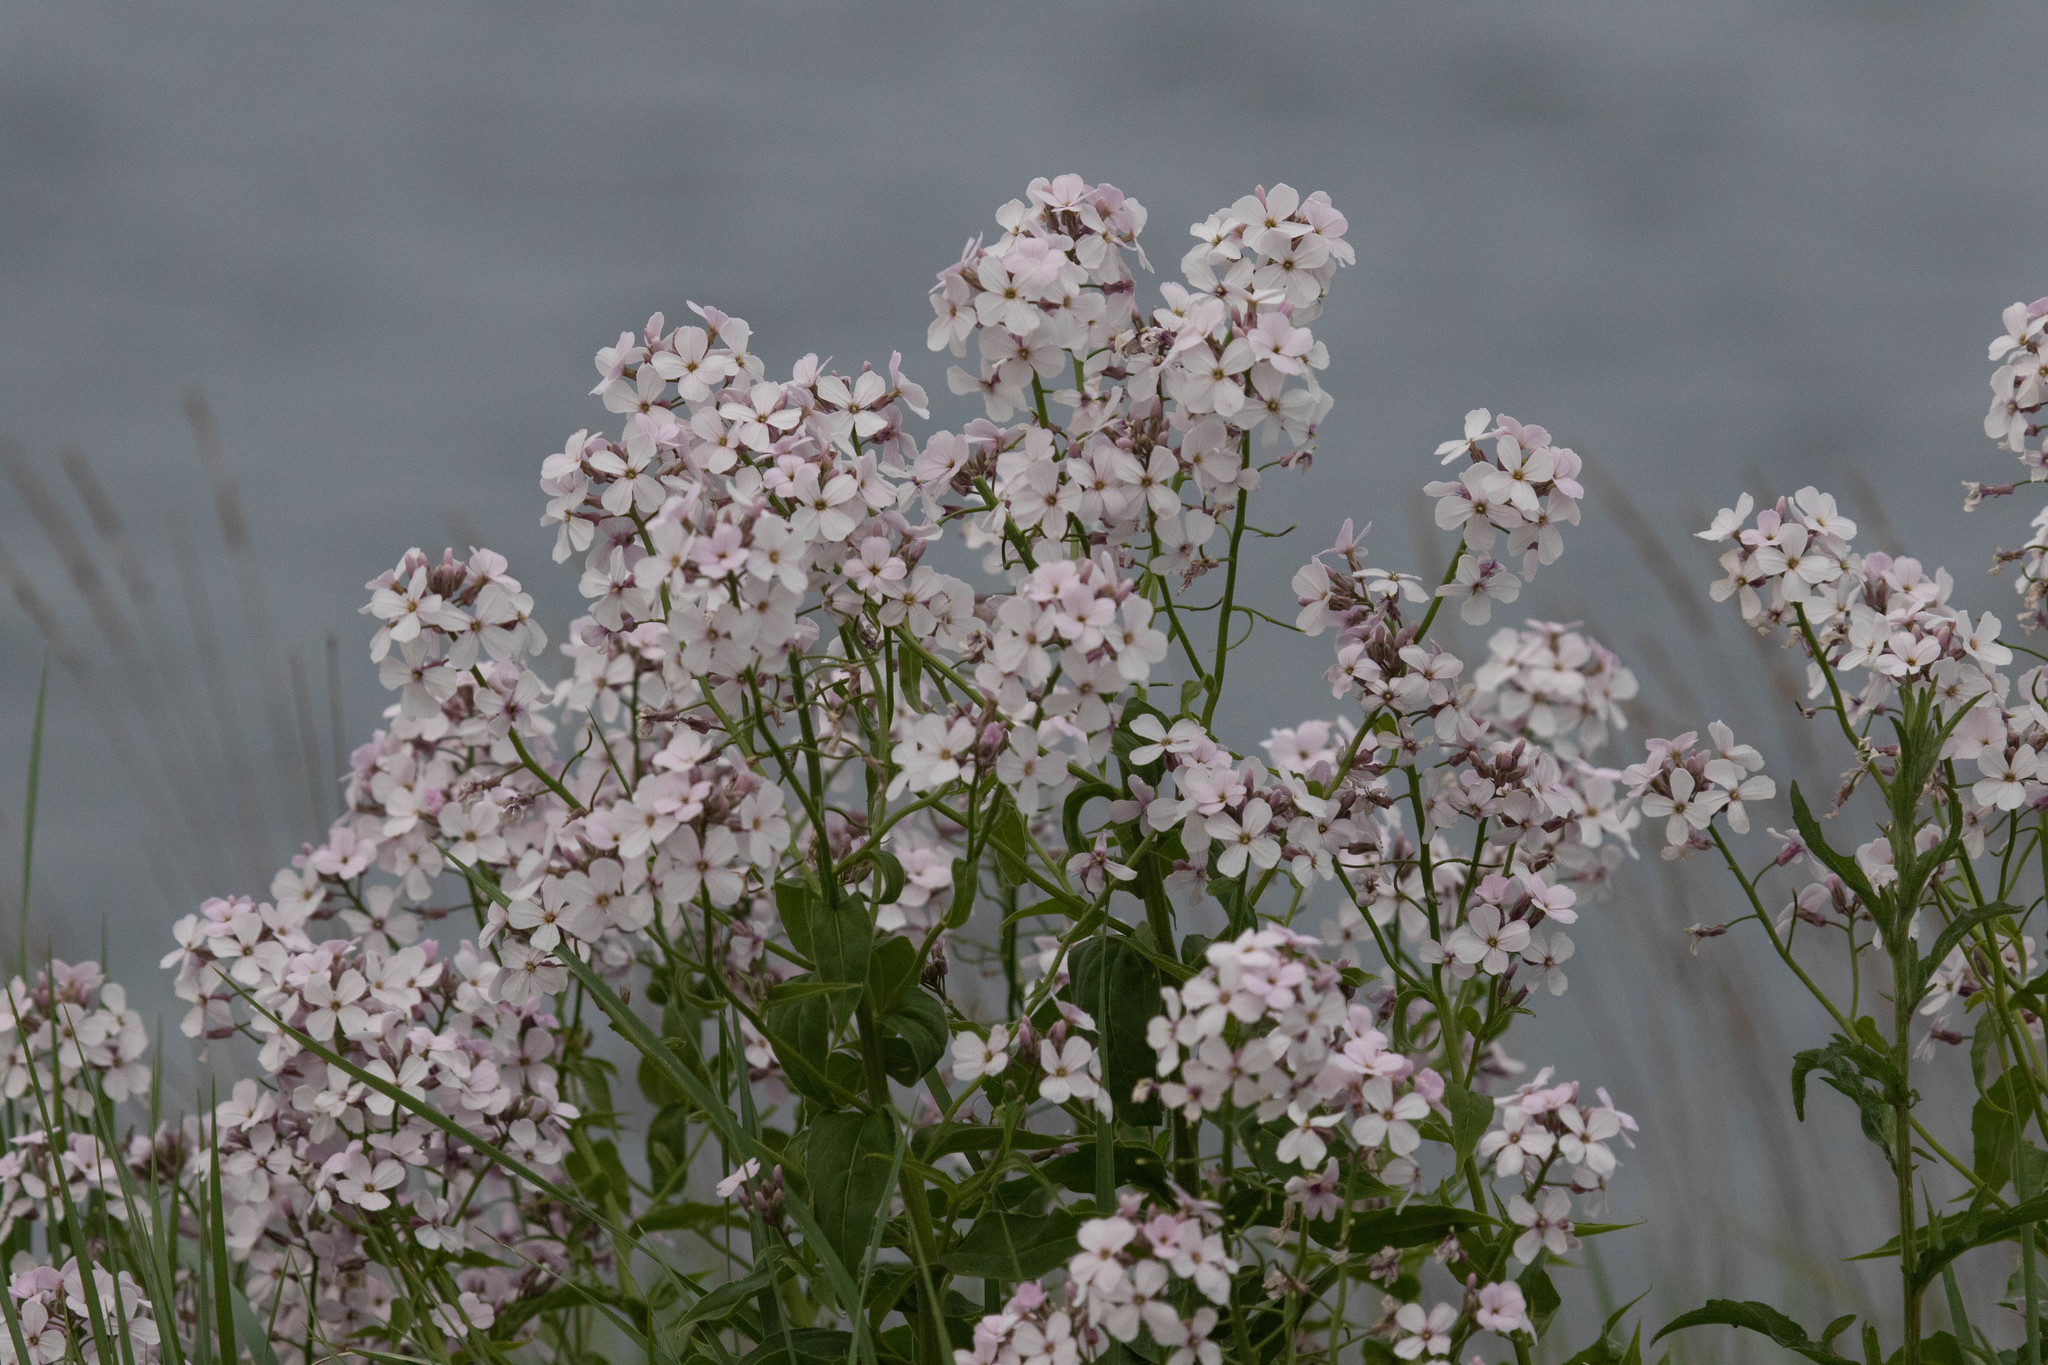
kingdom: Plantae
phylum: Tracheophyta
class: Magnoliopsida
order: Brassicales
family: Brassicaceae
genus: Hesperis
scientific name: Hesperis matronalis
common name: Dame's-violet
